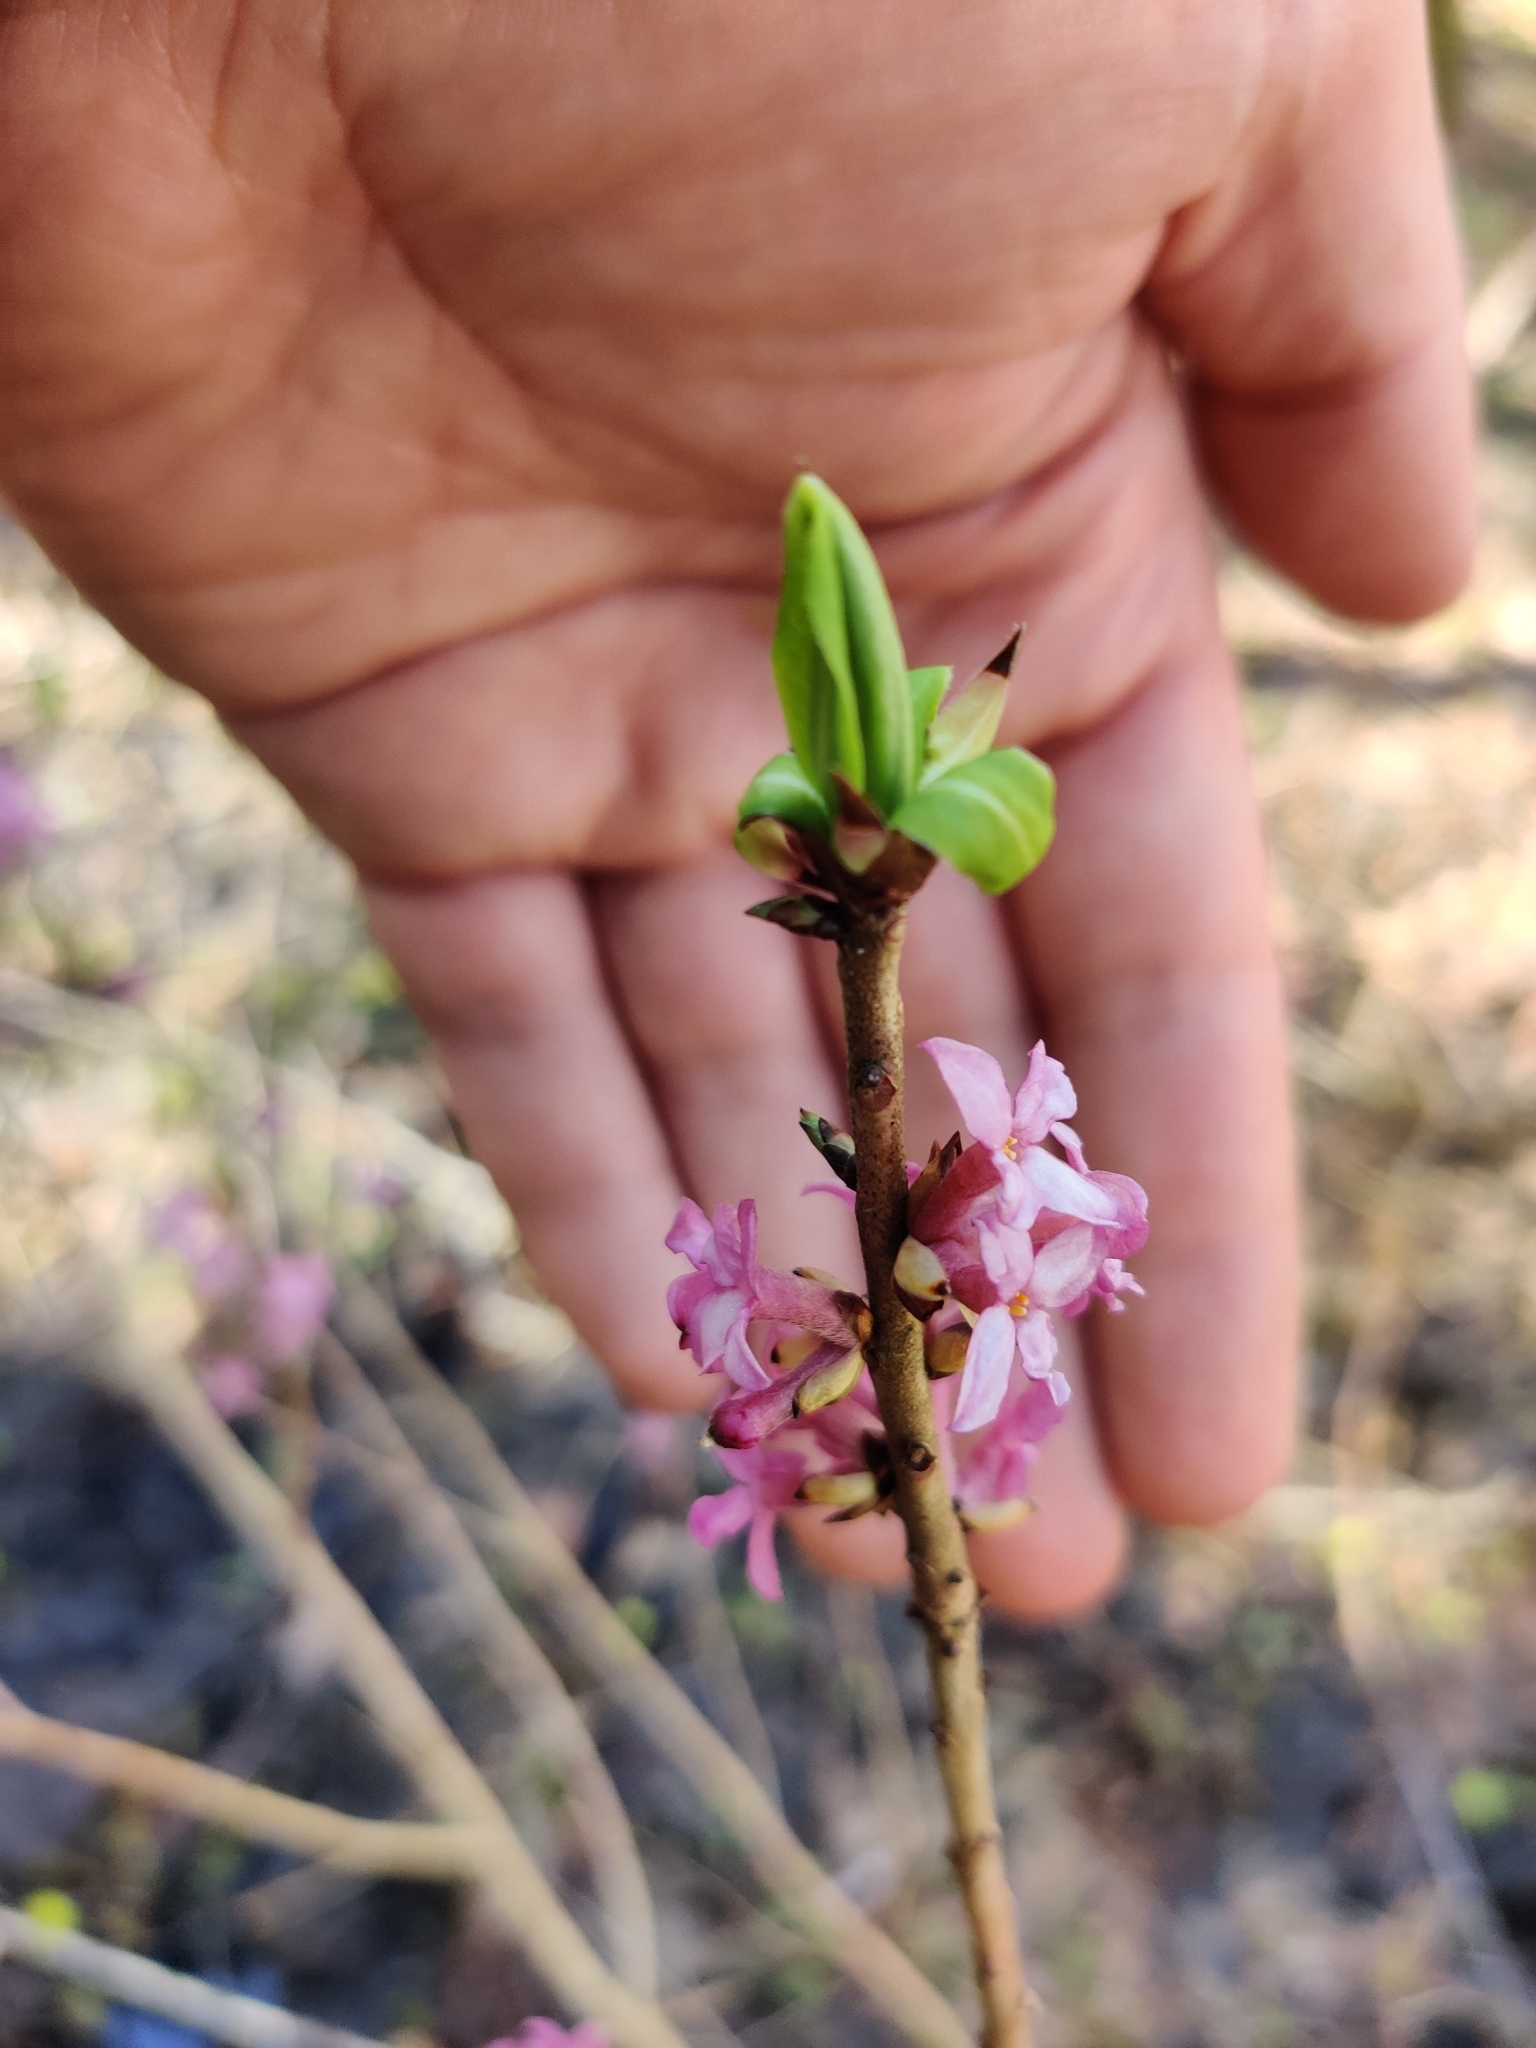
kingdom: Plantae
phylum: Tracheophyta
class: Magnoliopsida
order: Malvales
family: Thymelaeaceae
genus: Daphne
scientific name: Daphne mezereum
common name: Mezereon
